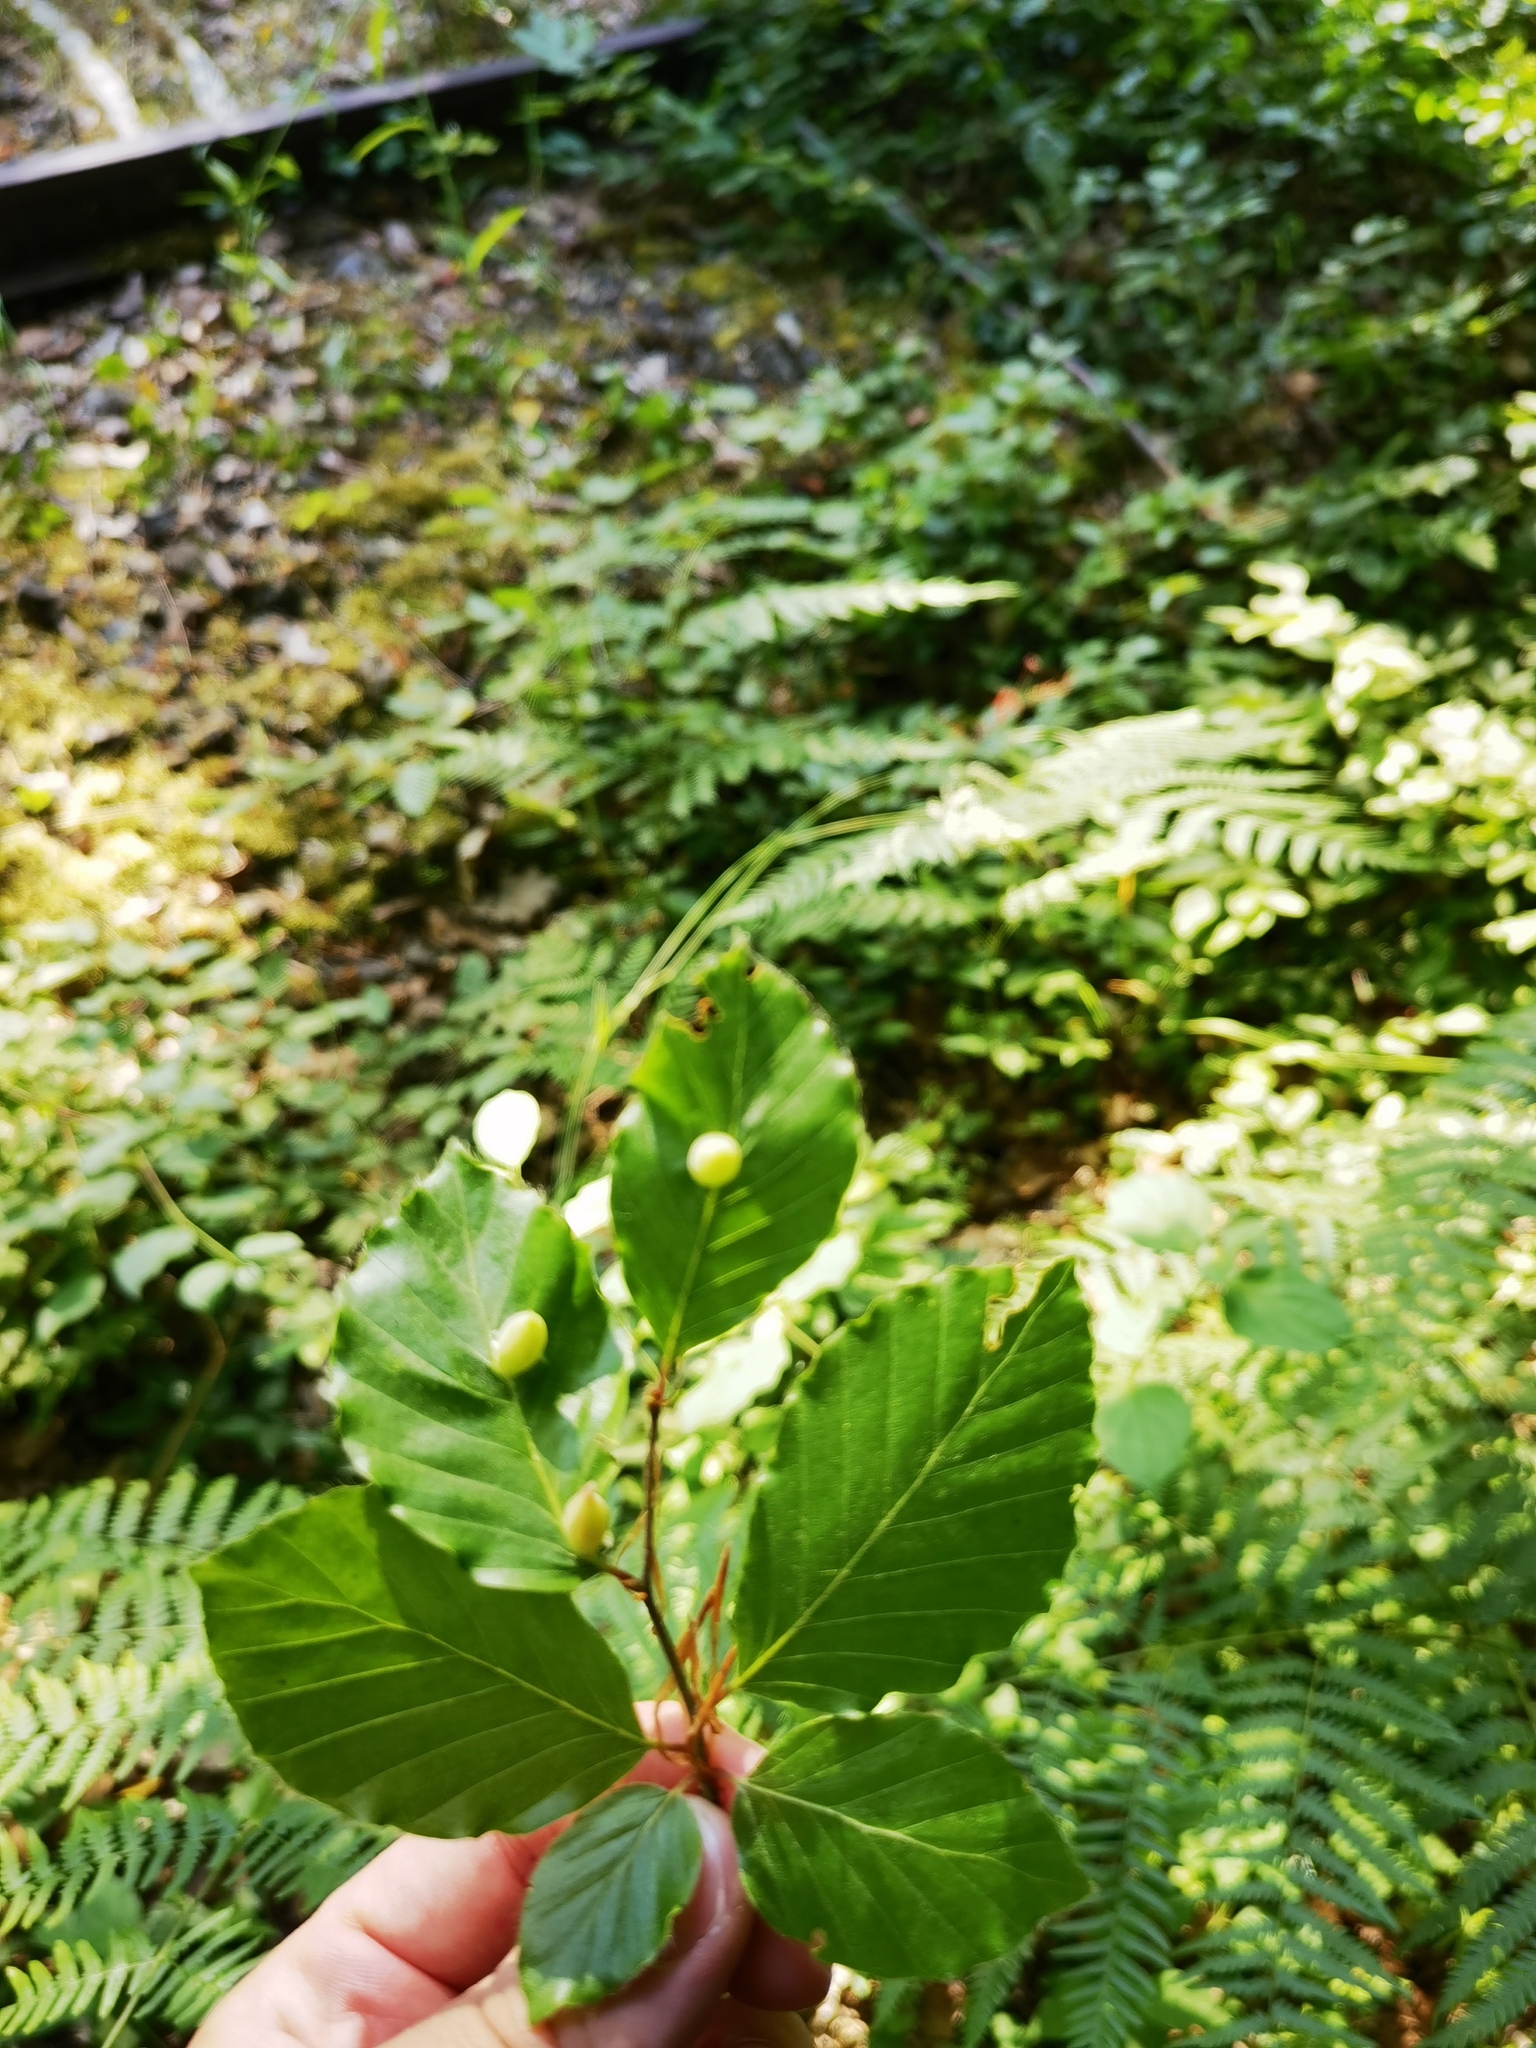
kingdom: Plantae
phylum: Tracheophyta
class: Magnoliopsida
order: Fagales
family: Fagaceae
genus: Fagus
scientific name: Fagus sylvatica
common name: Beech
